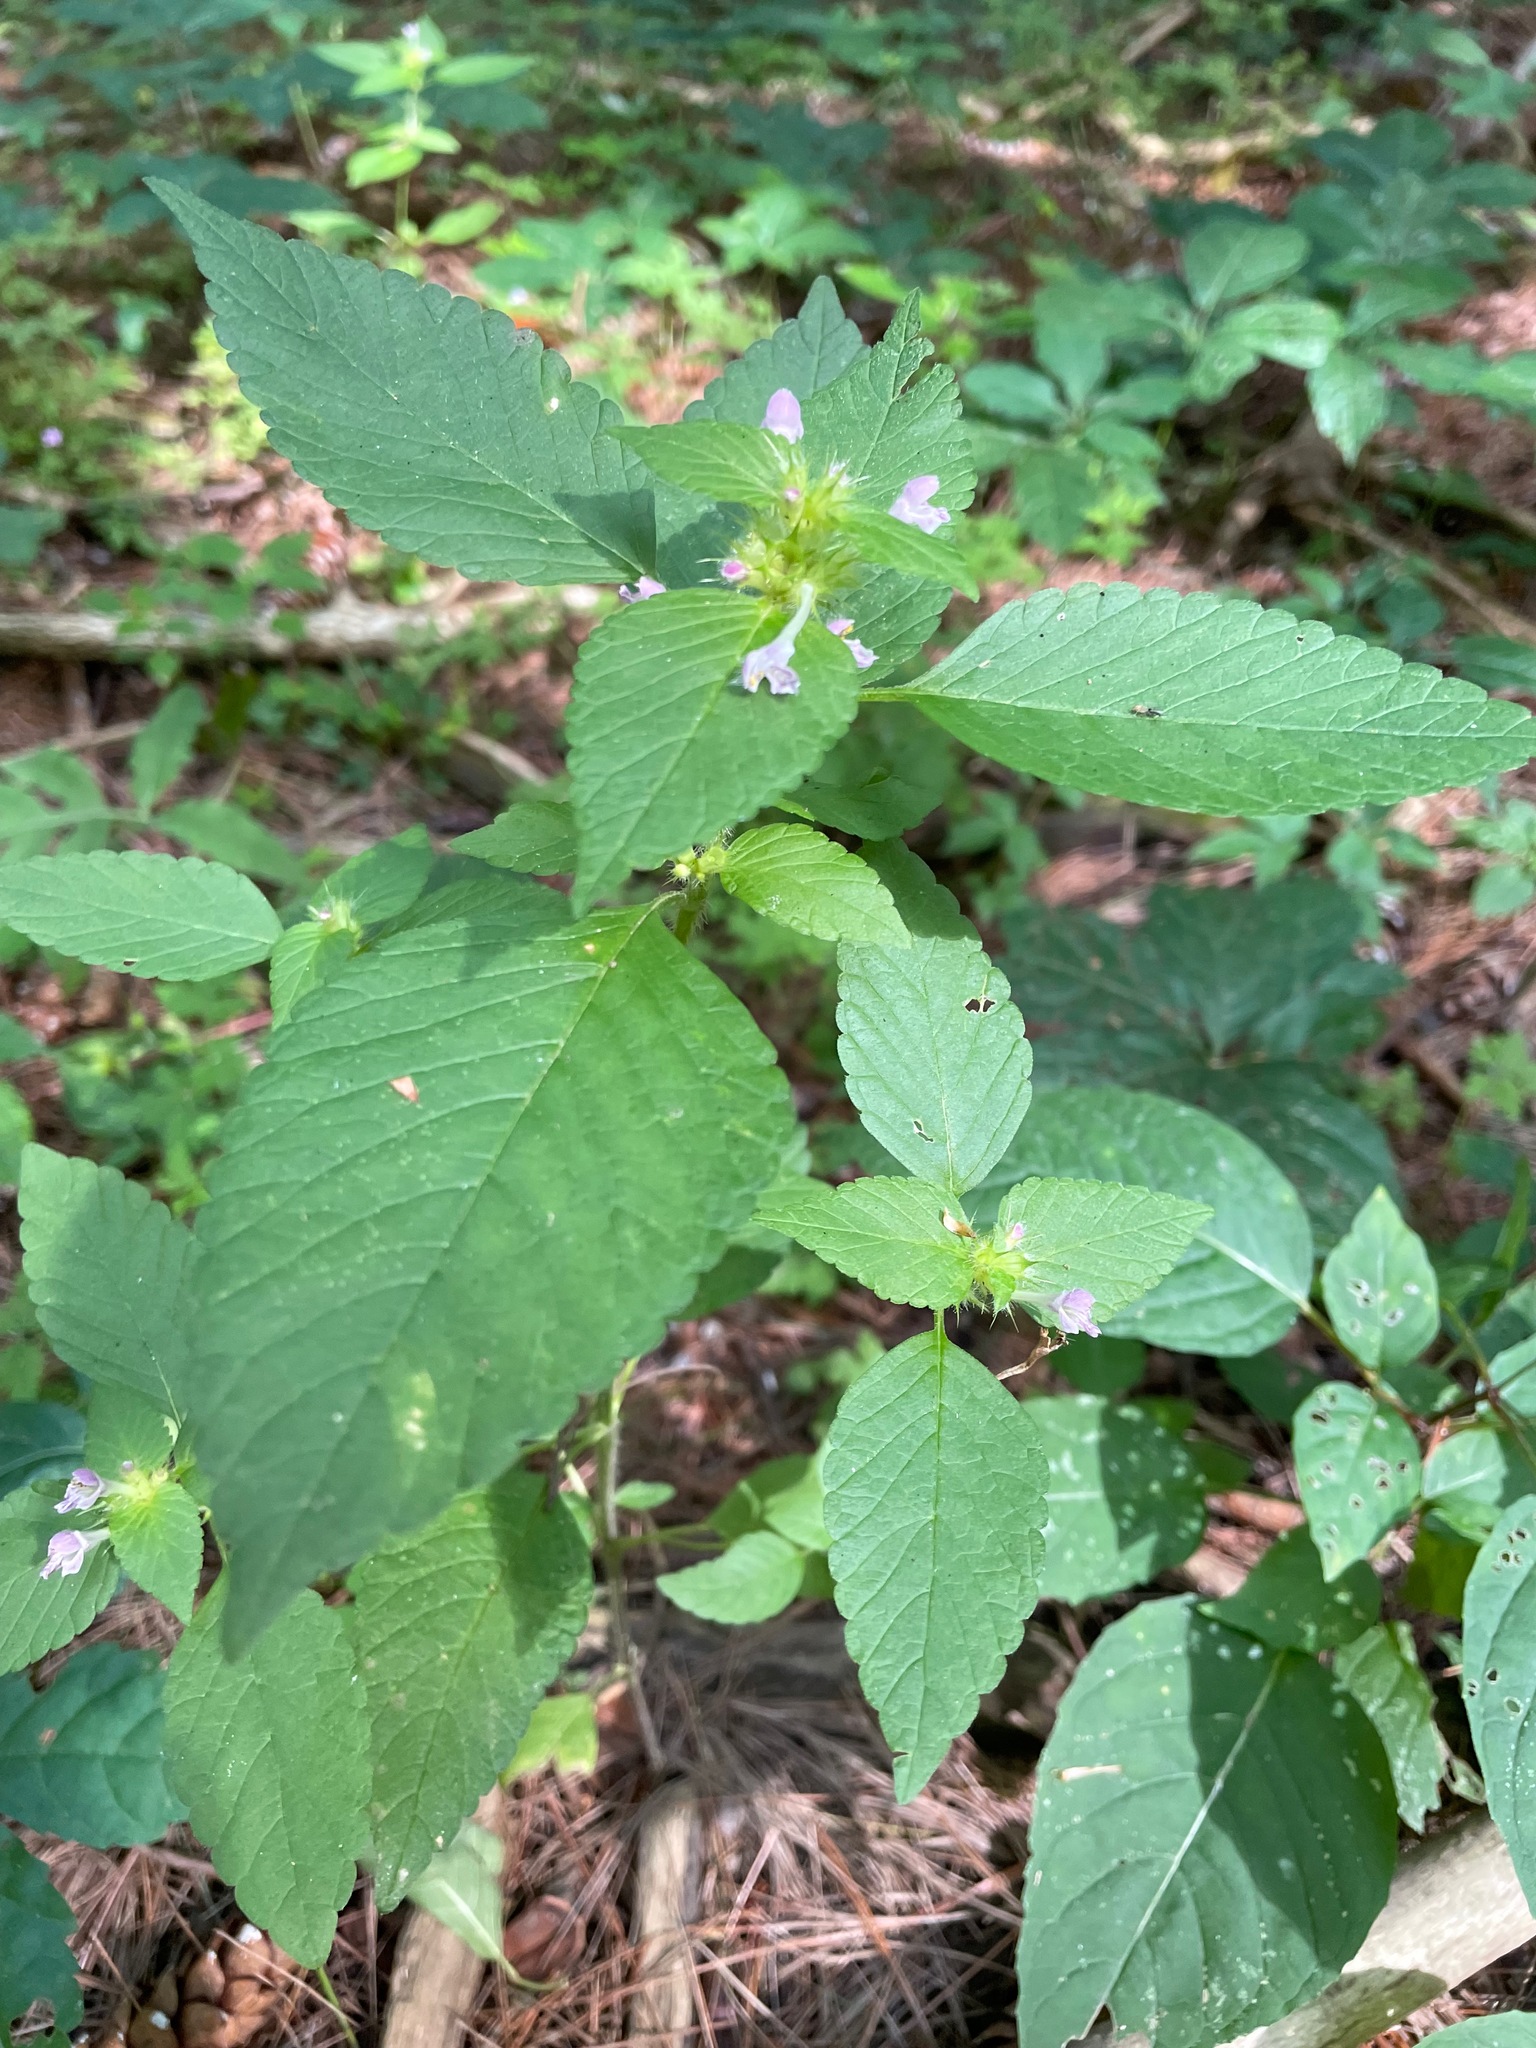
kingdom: Plantae
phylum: Tracheophyta
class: Magnoliopsida
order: Lamiales
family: Lamiaceae
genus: Galeopsis
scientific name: Galeopsis bifida
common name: Bifid hemp-nettle
